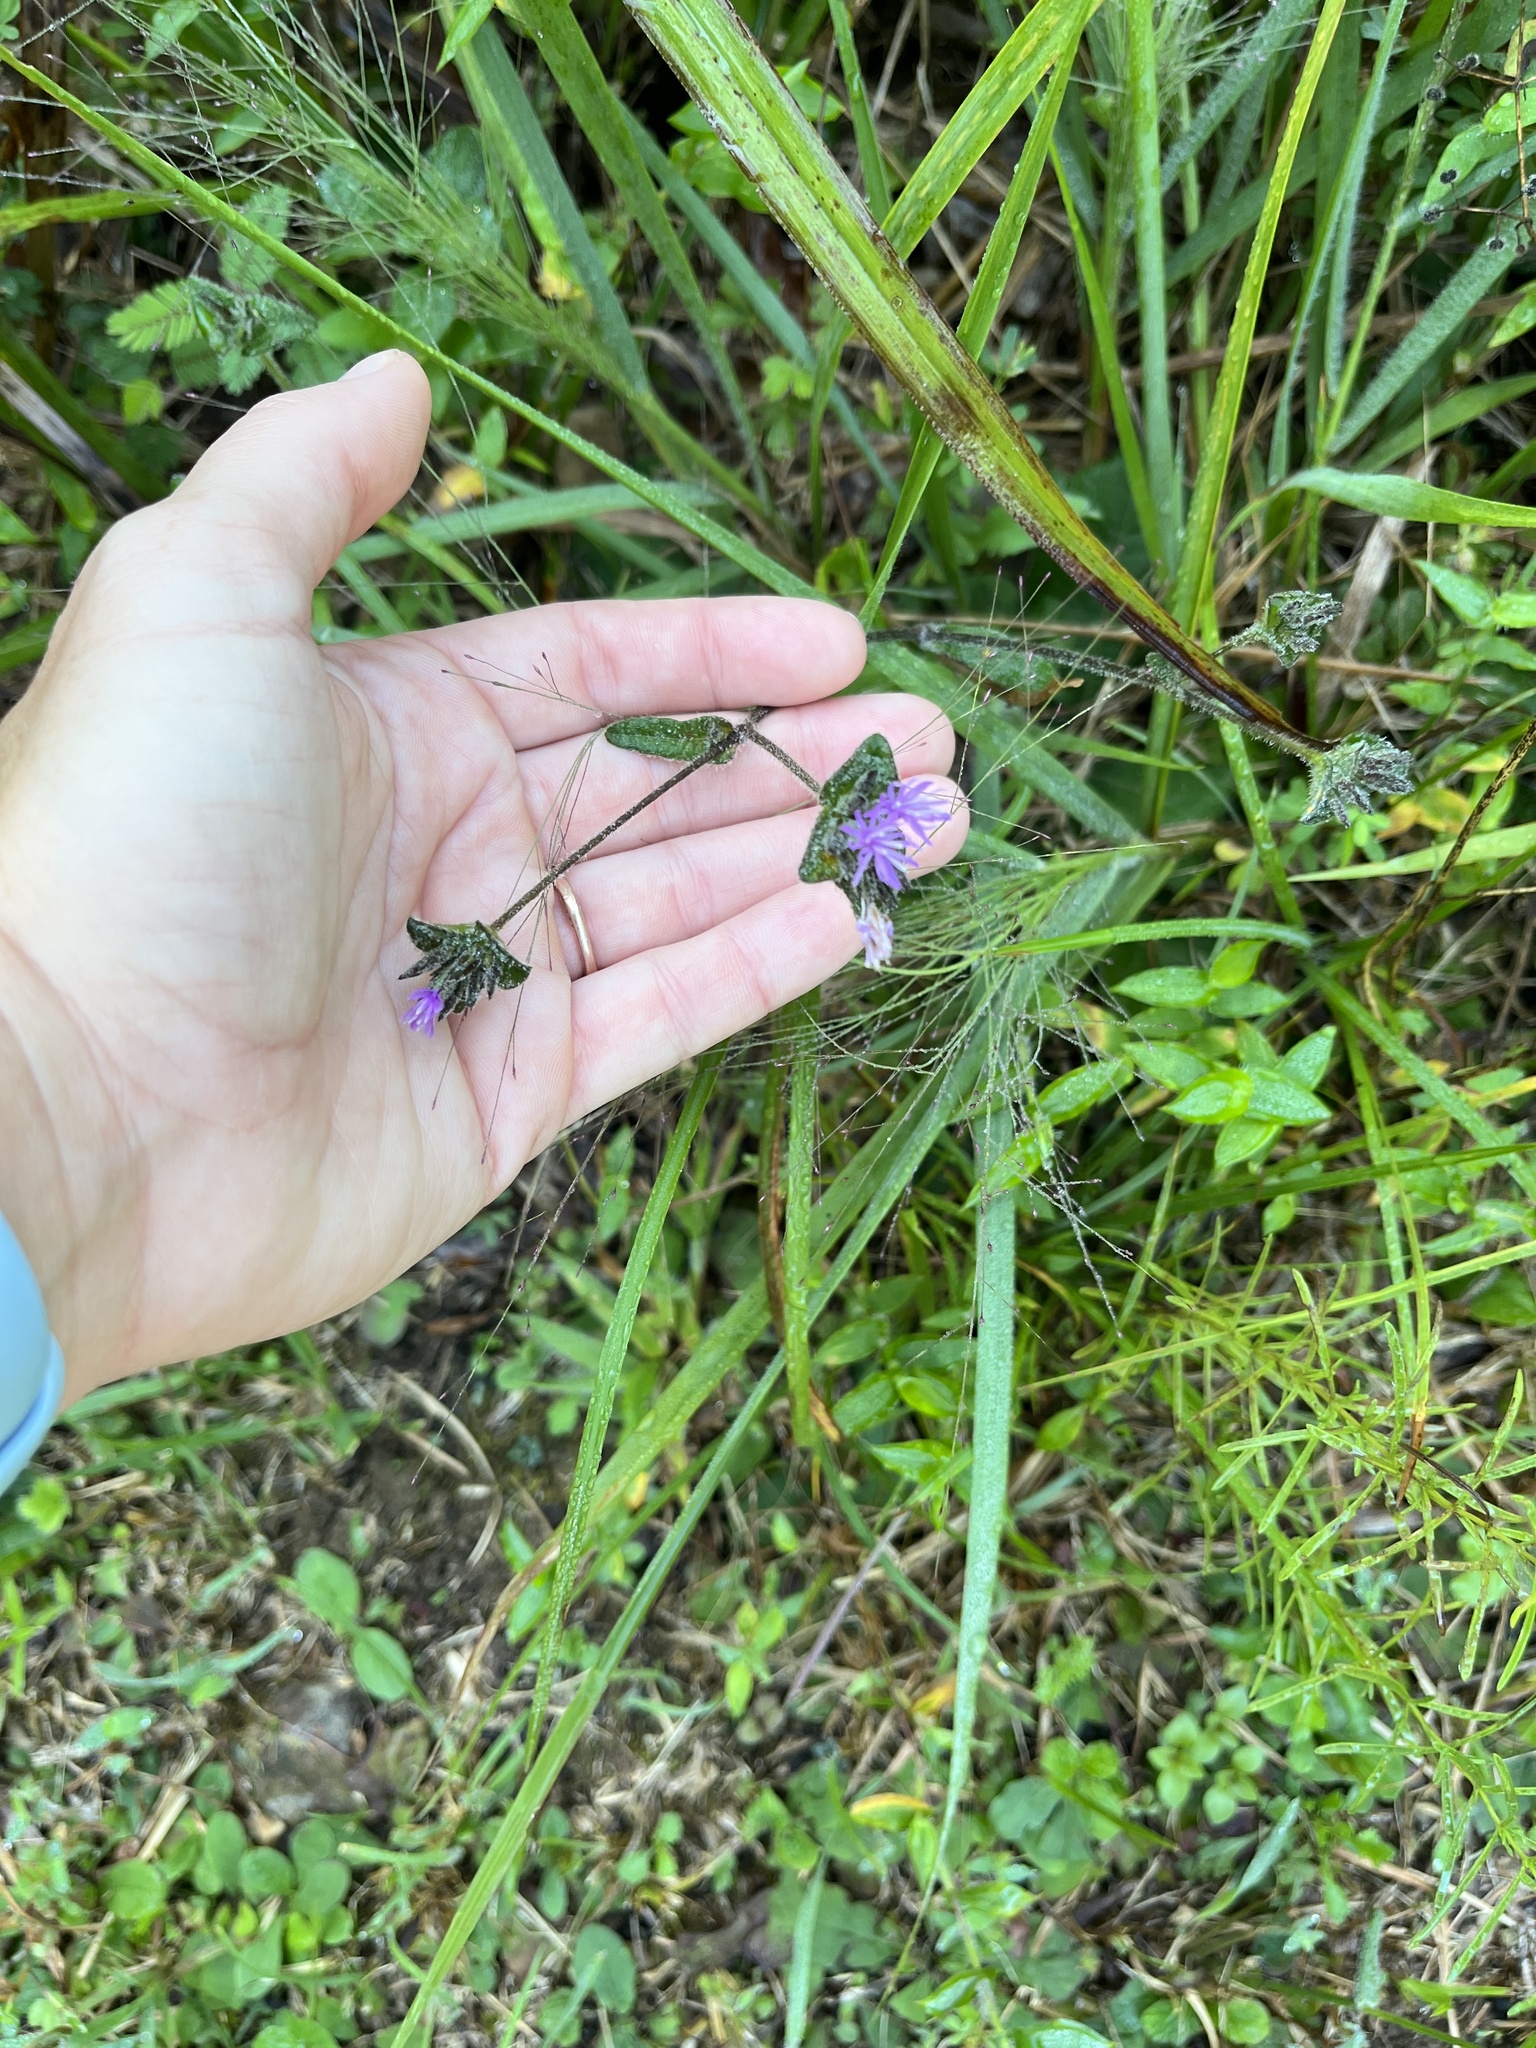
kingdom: Plantae
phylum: Tracheophyta
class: Magnoliopsida
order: Asterales
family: Asteraceae
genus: Elephantopus
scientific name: Elephantopus tomentosus
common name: Tobacco-weed
